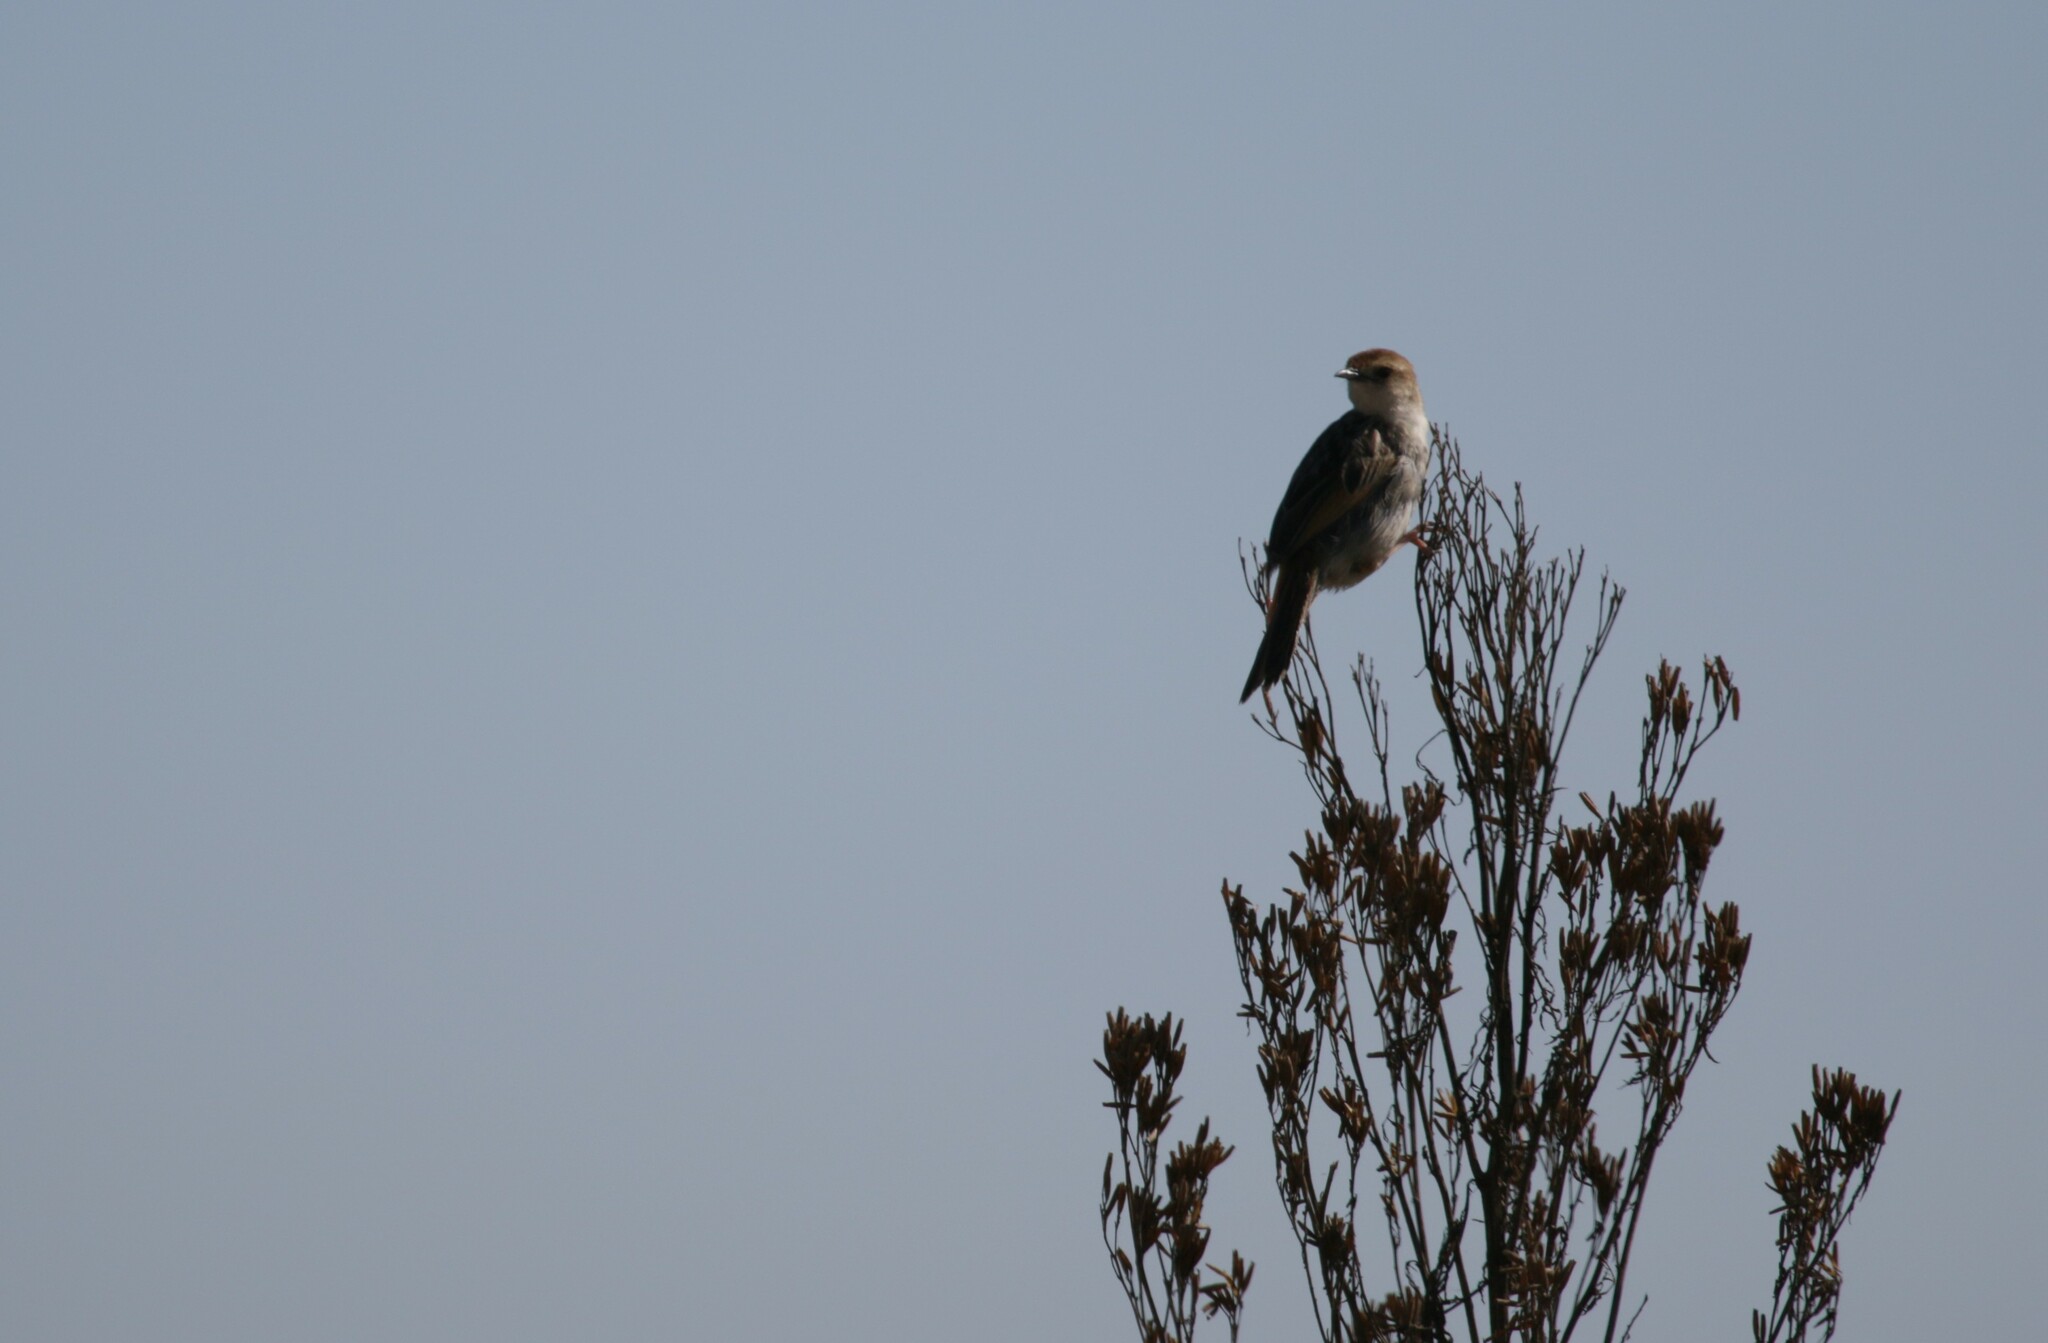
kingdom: Animalia
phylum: Chordata
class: Aves
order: Passeriformes
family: Cisticolidae
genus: Cisticola
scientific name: Cisticola tinniens
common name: Levaillant's cisticola
